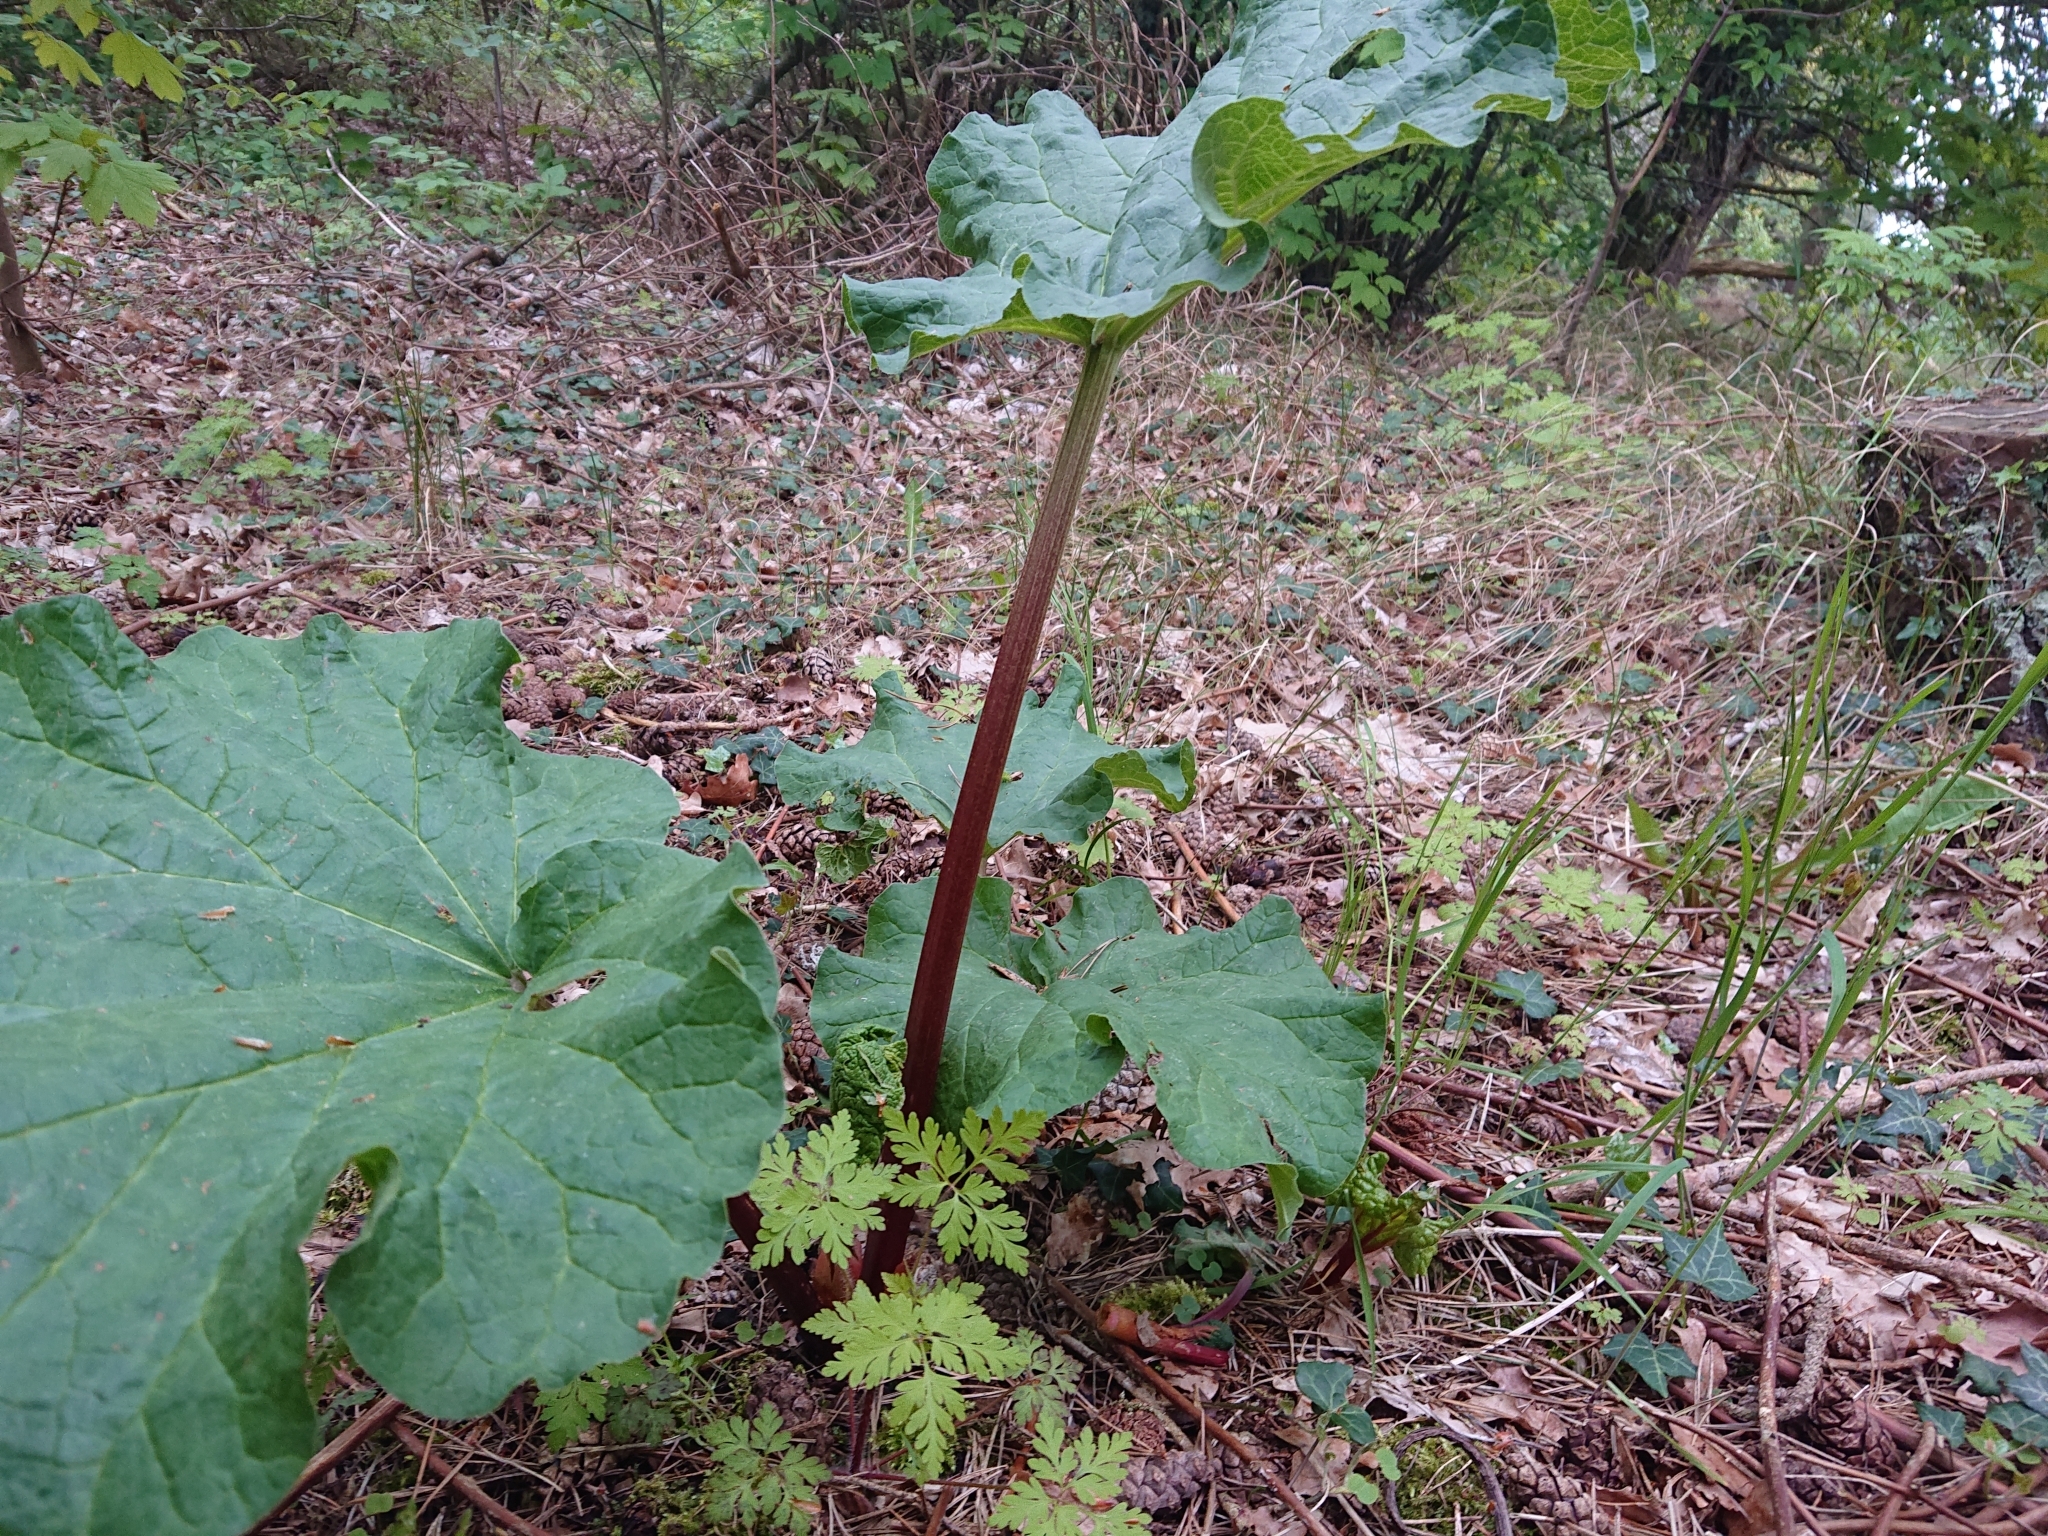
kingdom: Plantae
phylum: Tracheophyta
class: Magnoliopsida
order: Caryophyllales
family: Polygonaceae
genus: Rheum
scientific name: Rheum rhabarbarum
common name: Garden rhubarb
